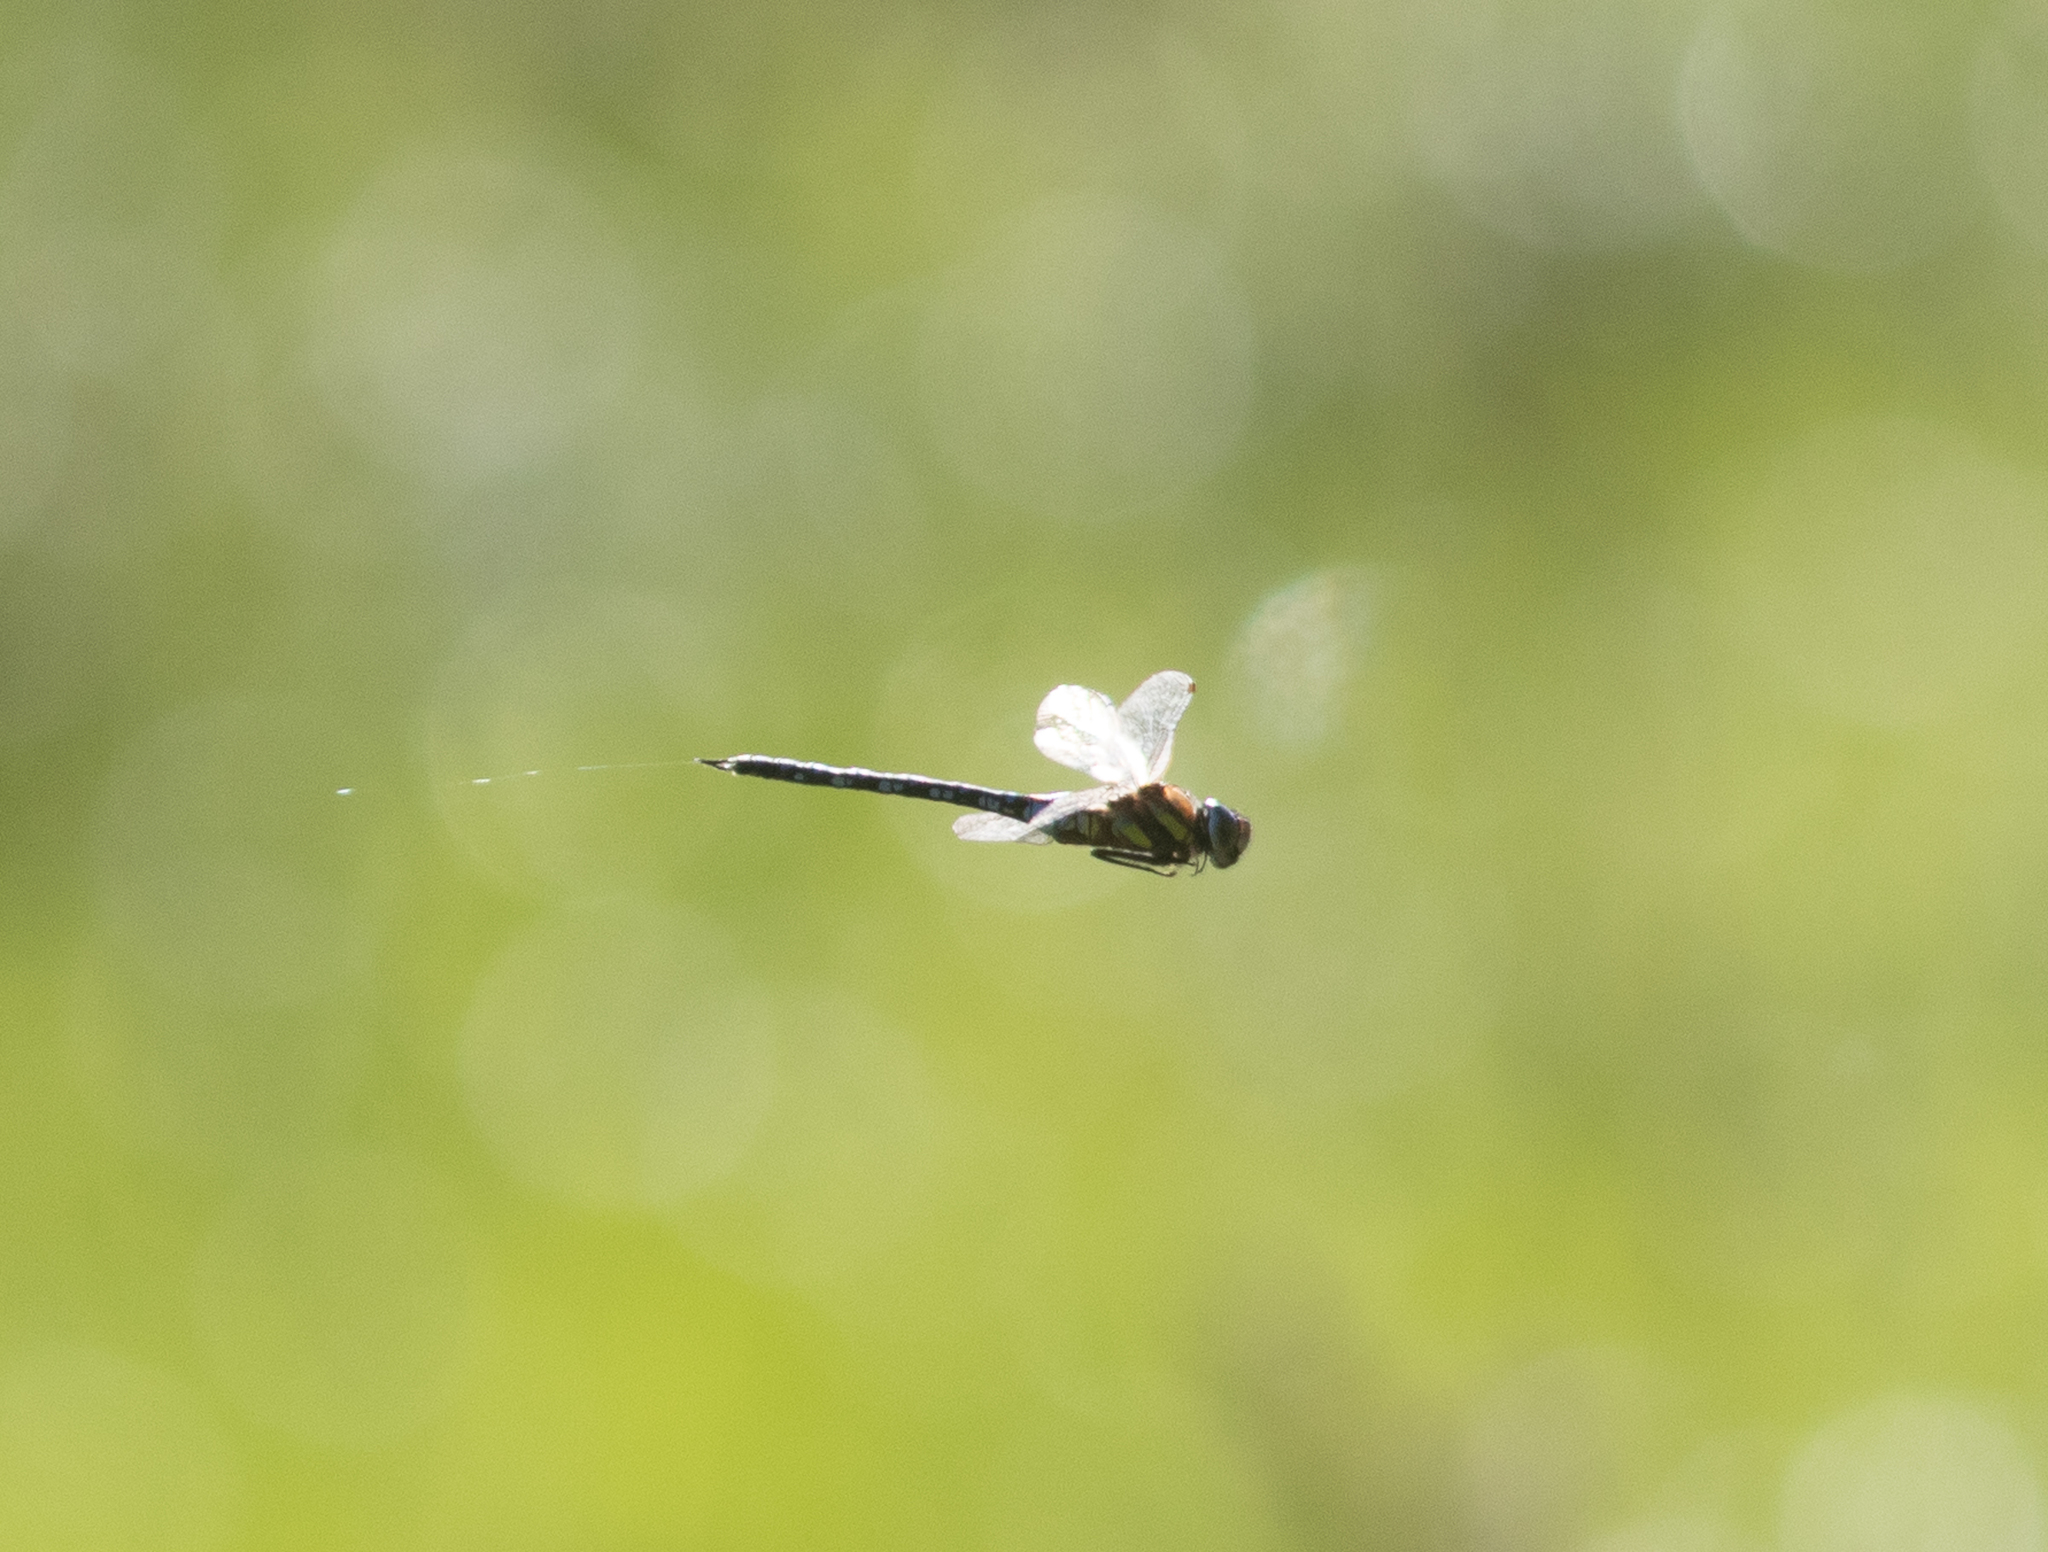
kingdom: Animalia
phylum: Arthropoda
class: Insecta
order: Odonata
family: Aeshnidae
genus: Aeshna
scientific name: Aeshna mixta
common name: Migrant hawker
